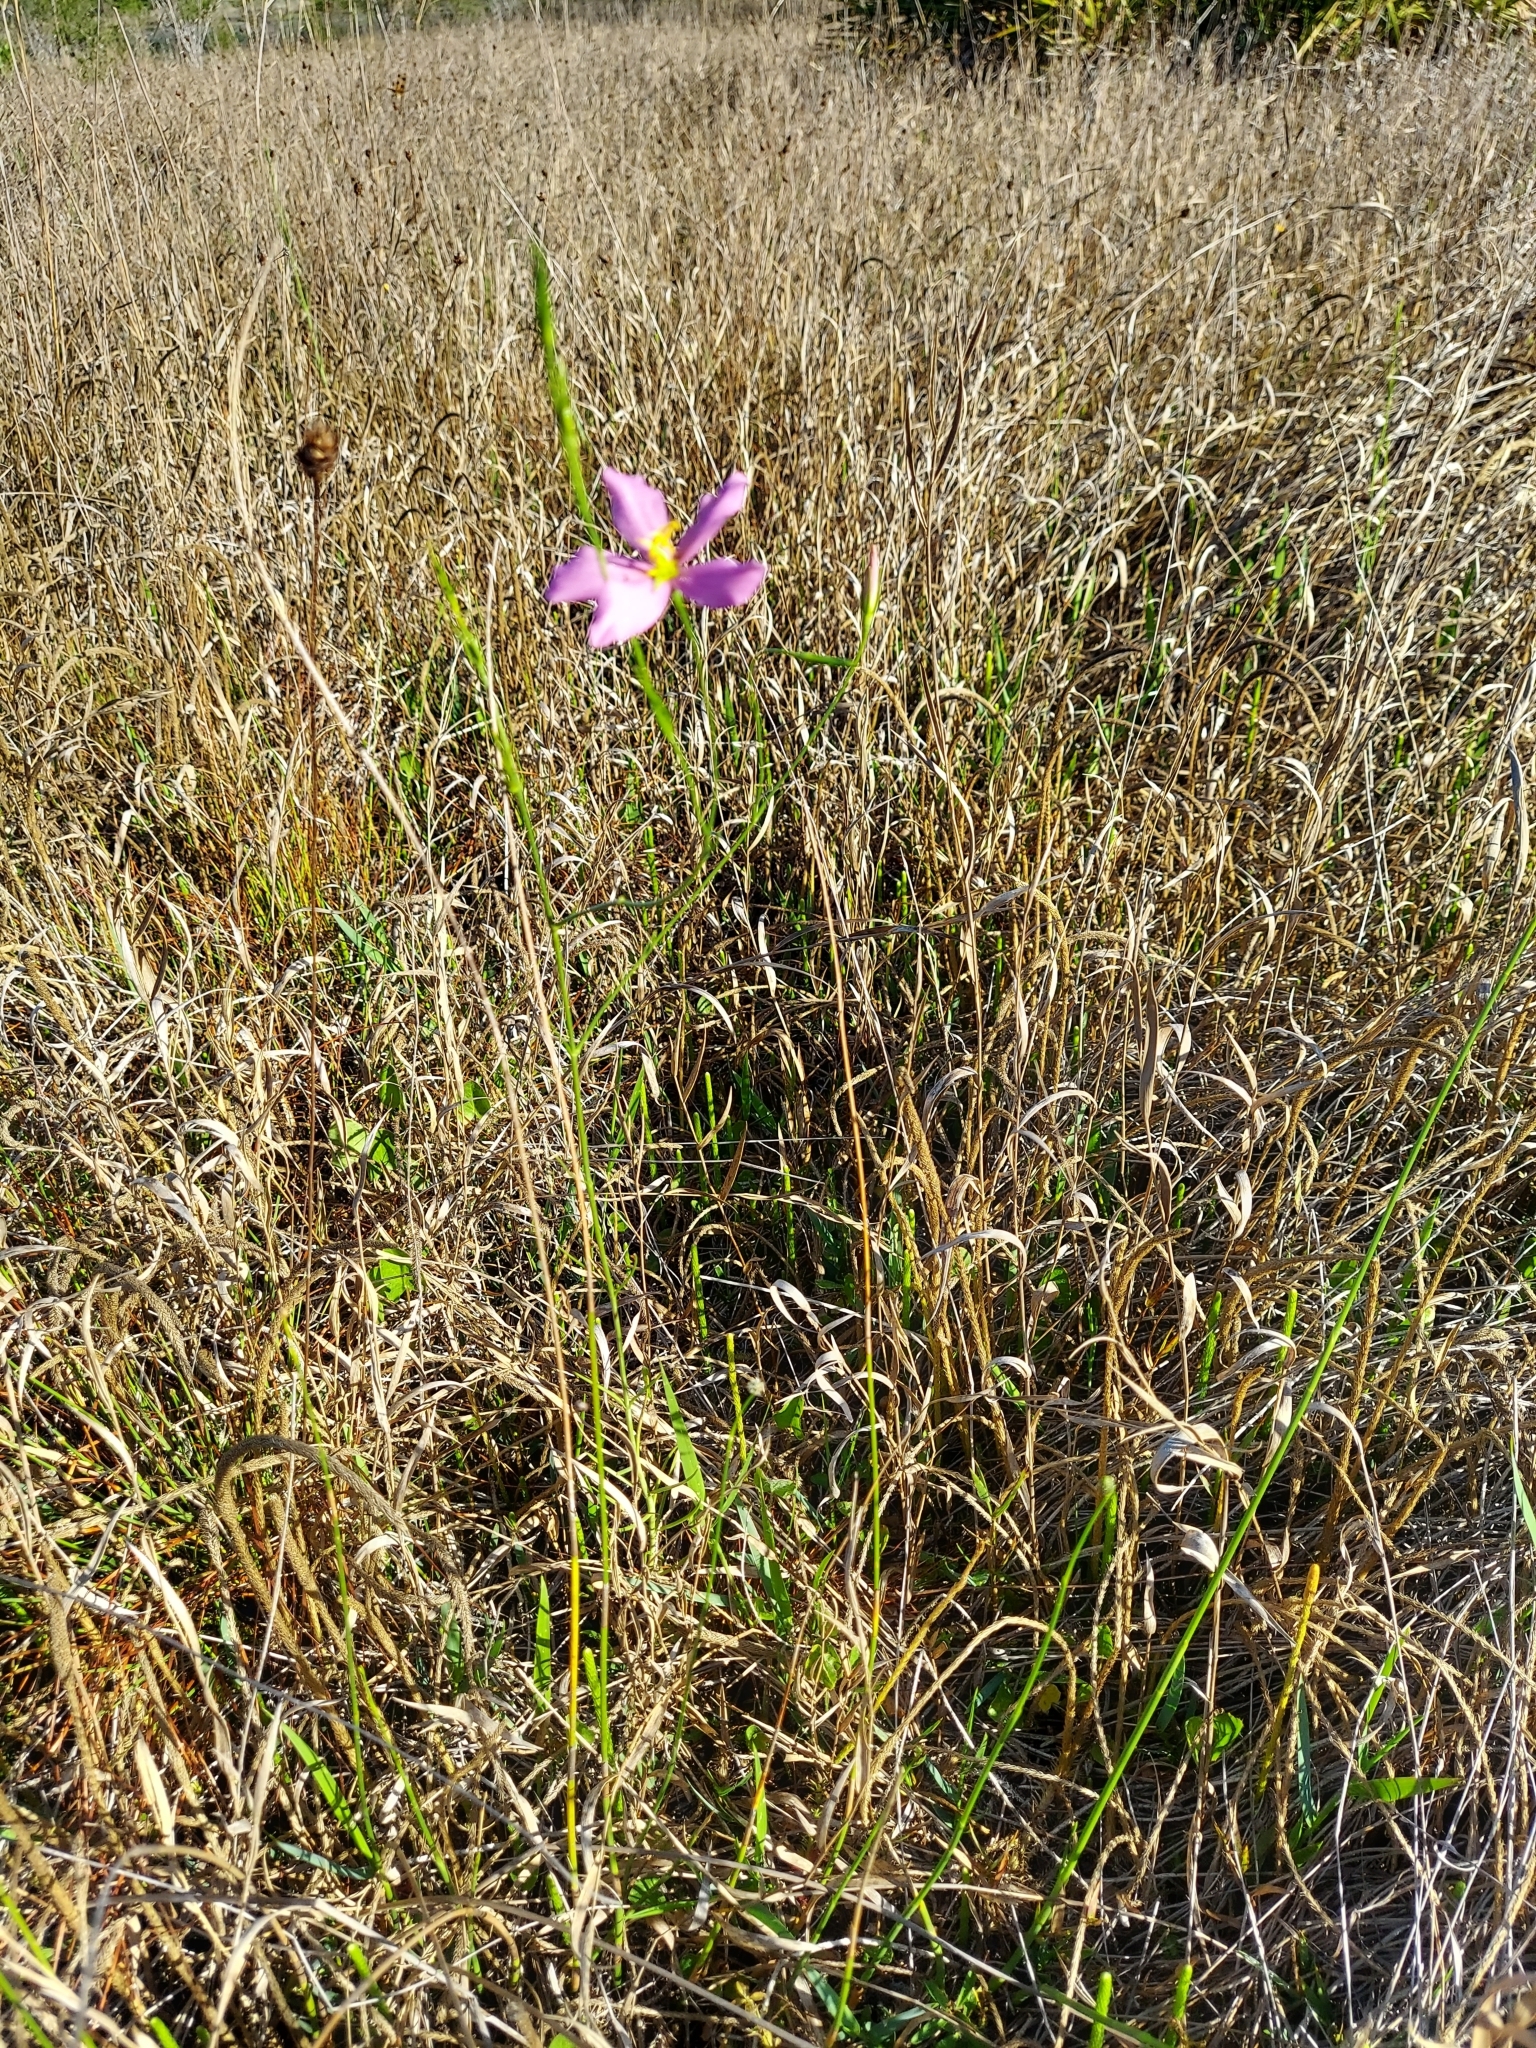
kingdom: Plantae
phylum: Tracheophyta
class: Magnoliopsida
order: Gentianales
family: Gentianaceae
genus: Sabatia
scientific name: Sabatia grandiflora
